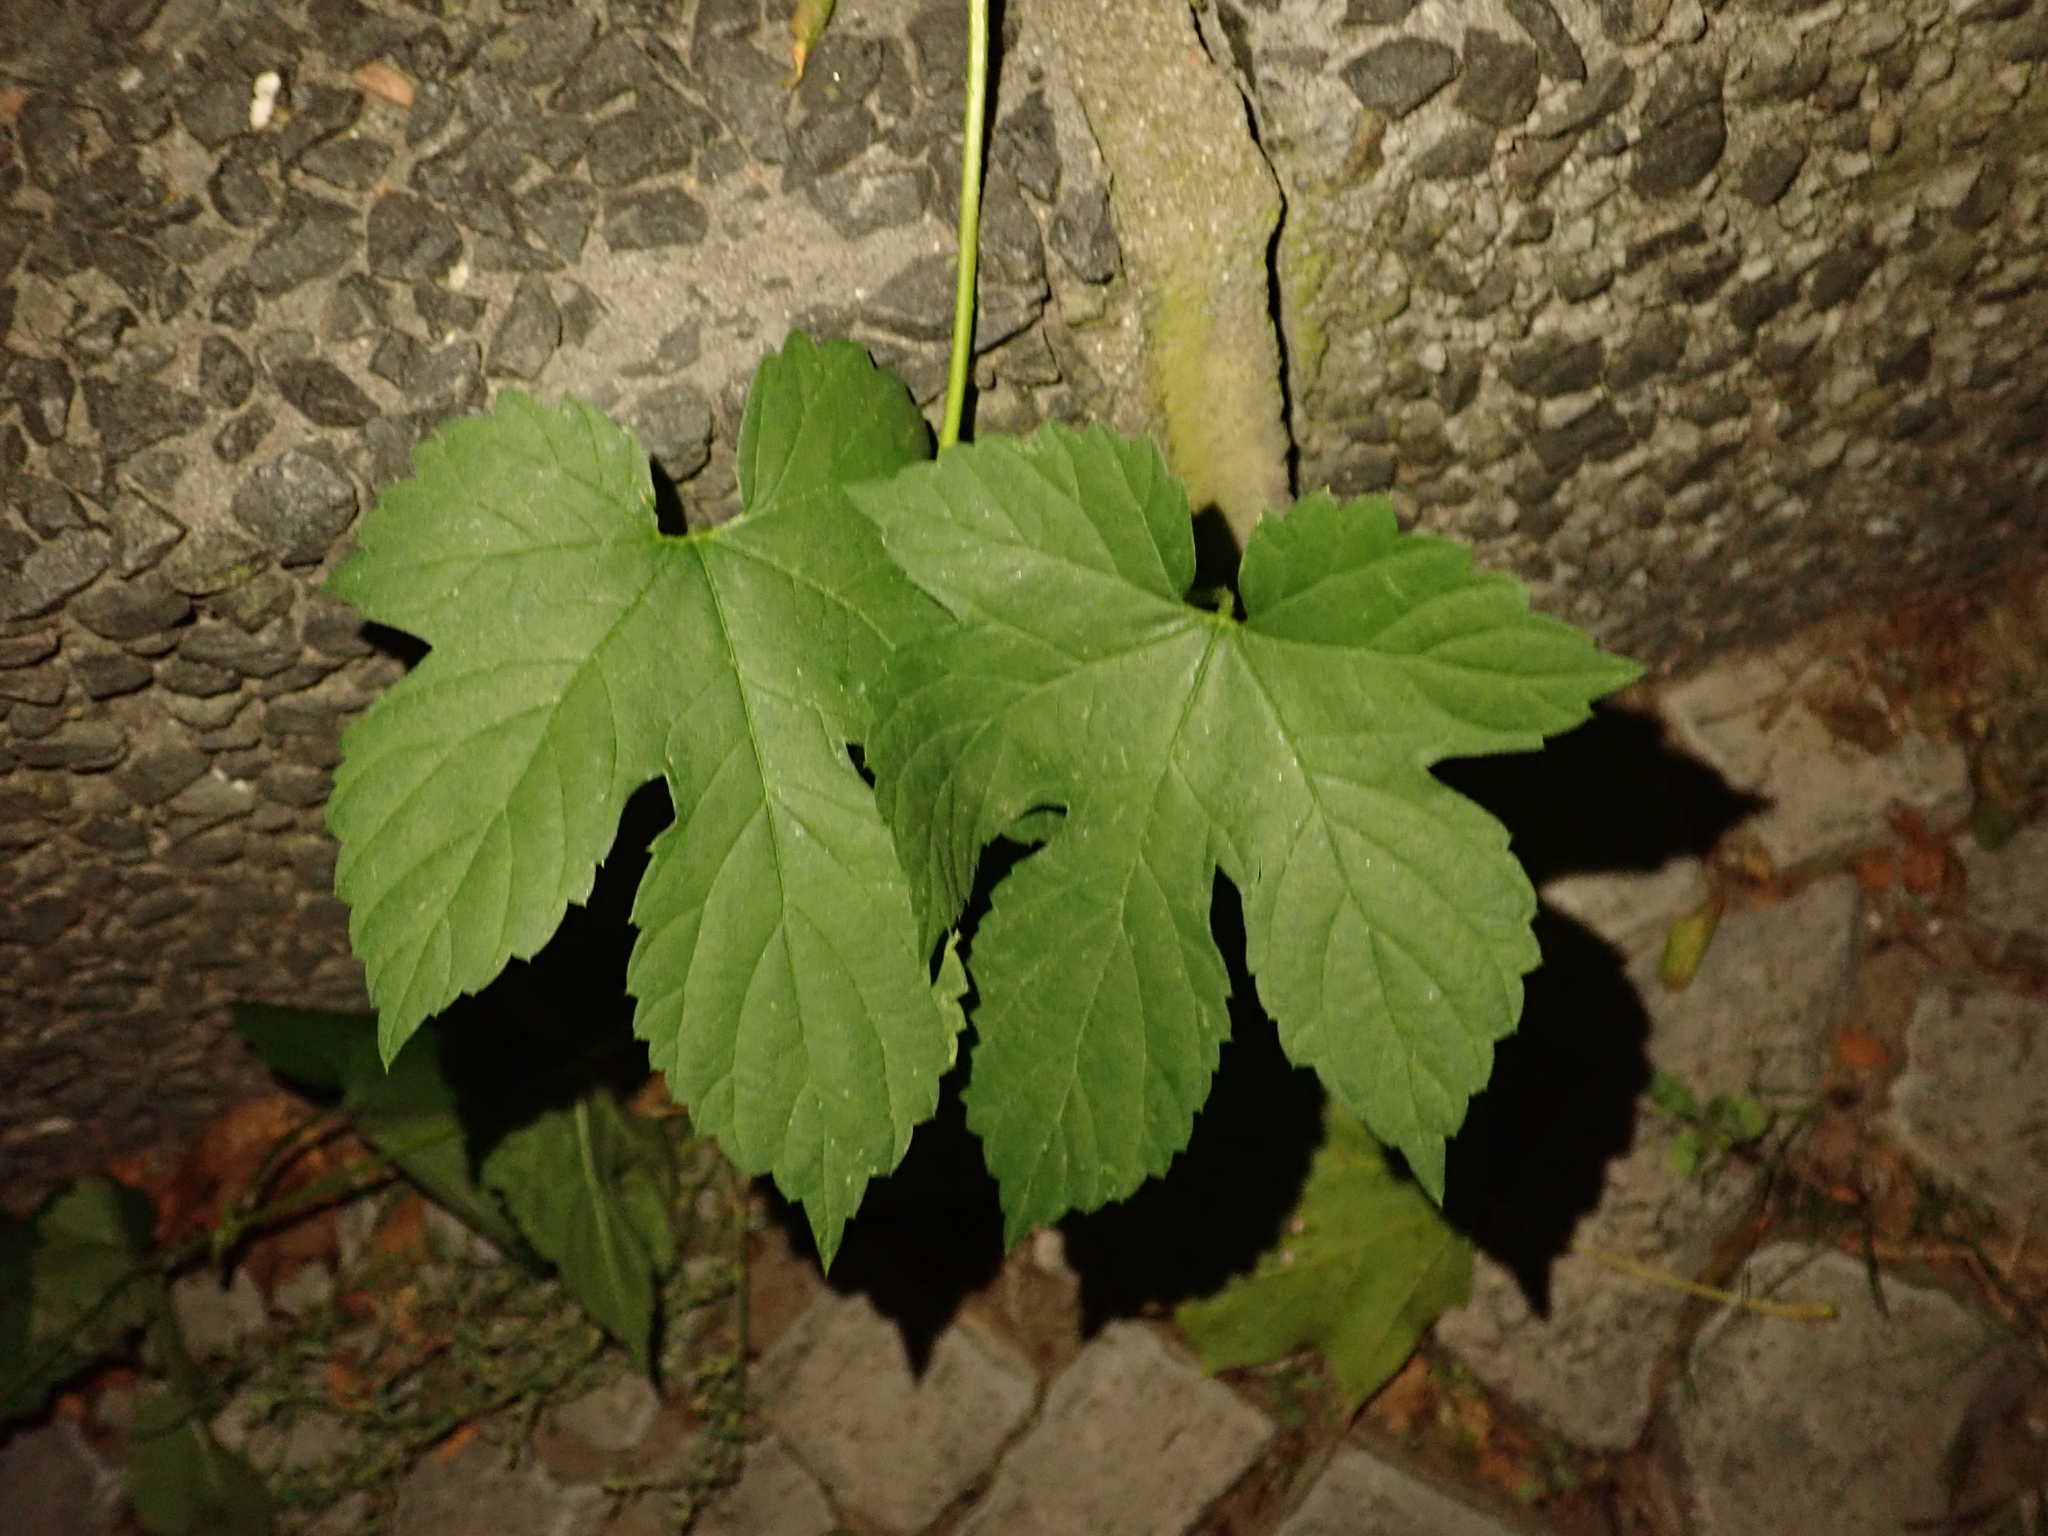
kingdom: Plantae
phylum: Tracheophyta
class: Magnoliopsida
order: Rosales
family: Cannabaceae
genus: Humulus
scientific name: Humulus lupulus
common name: Hop
